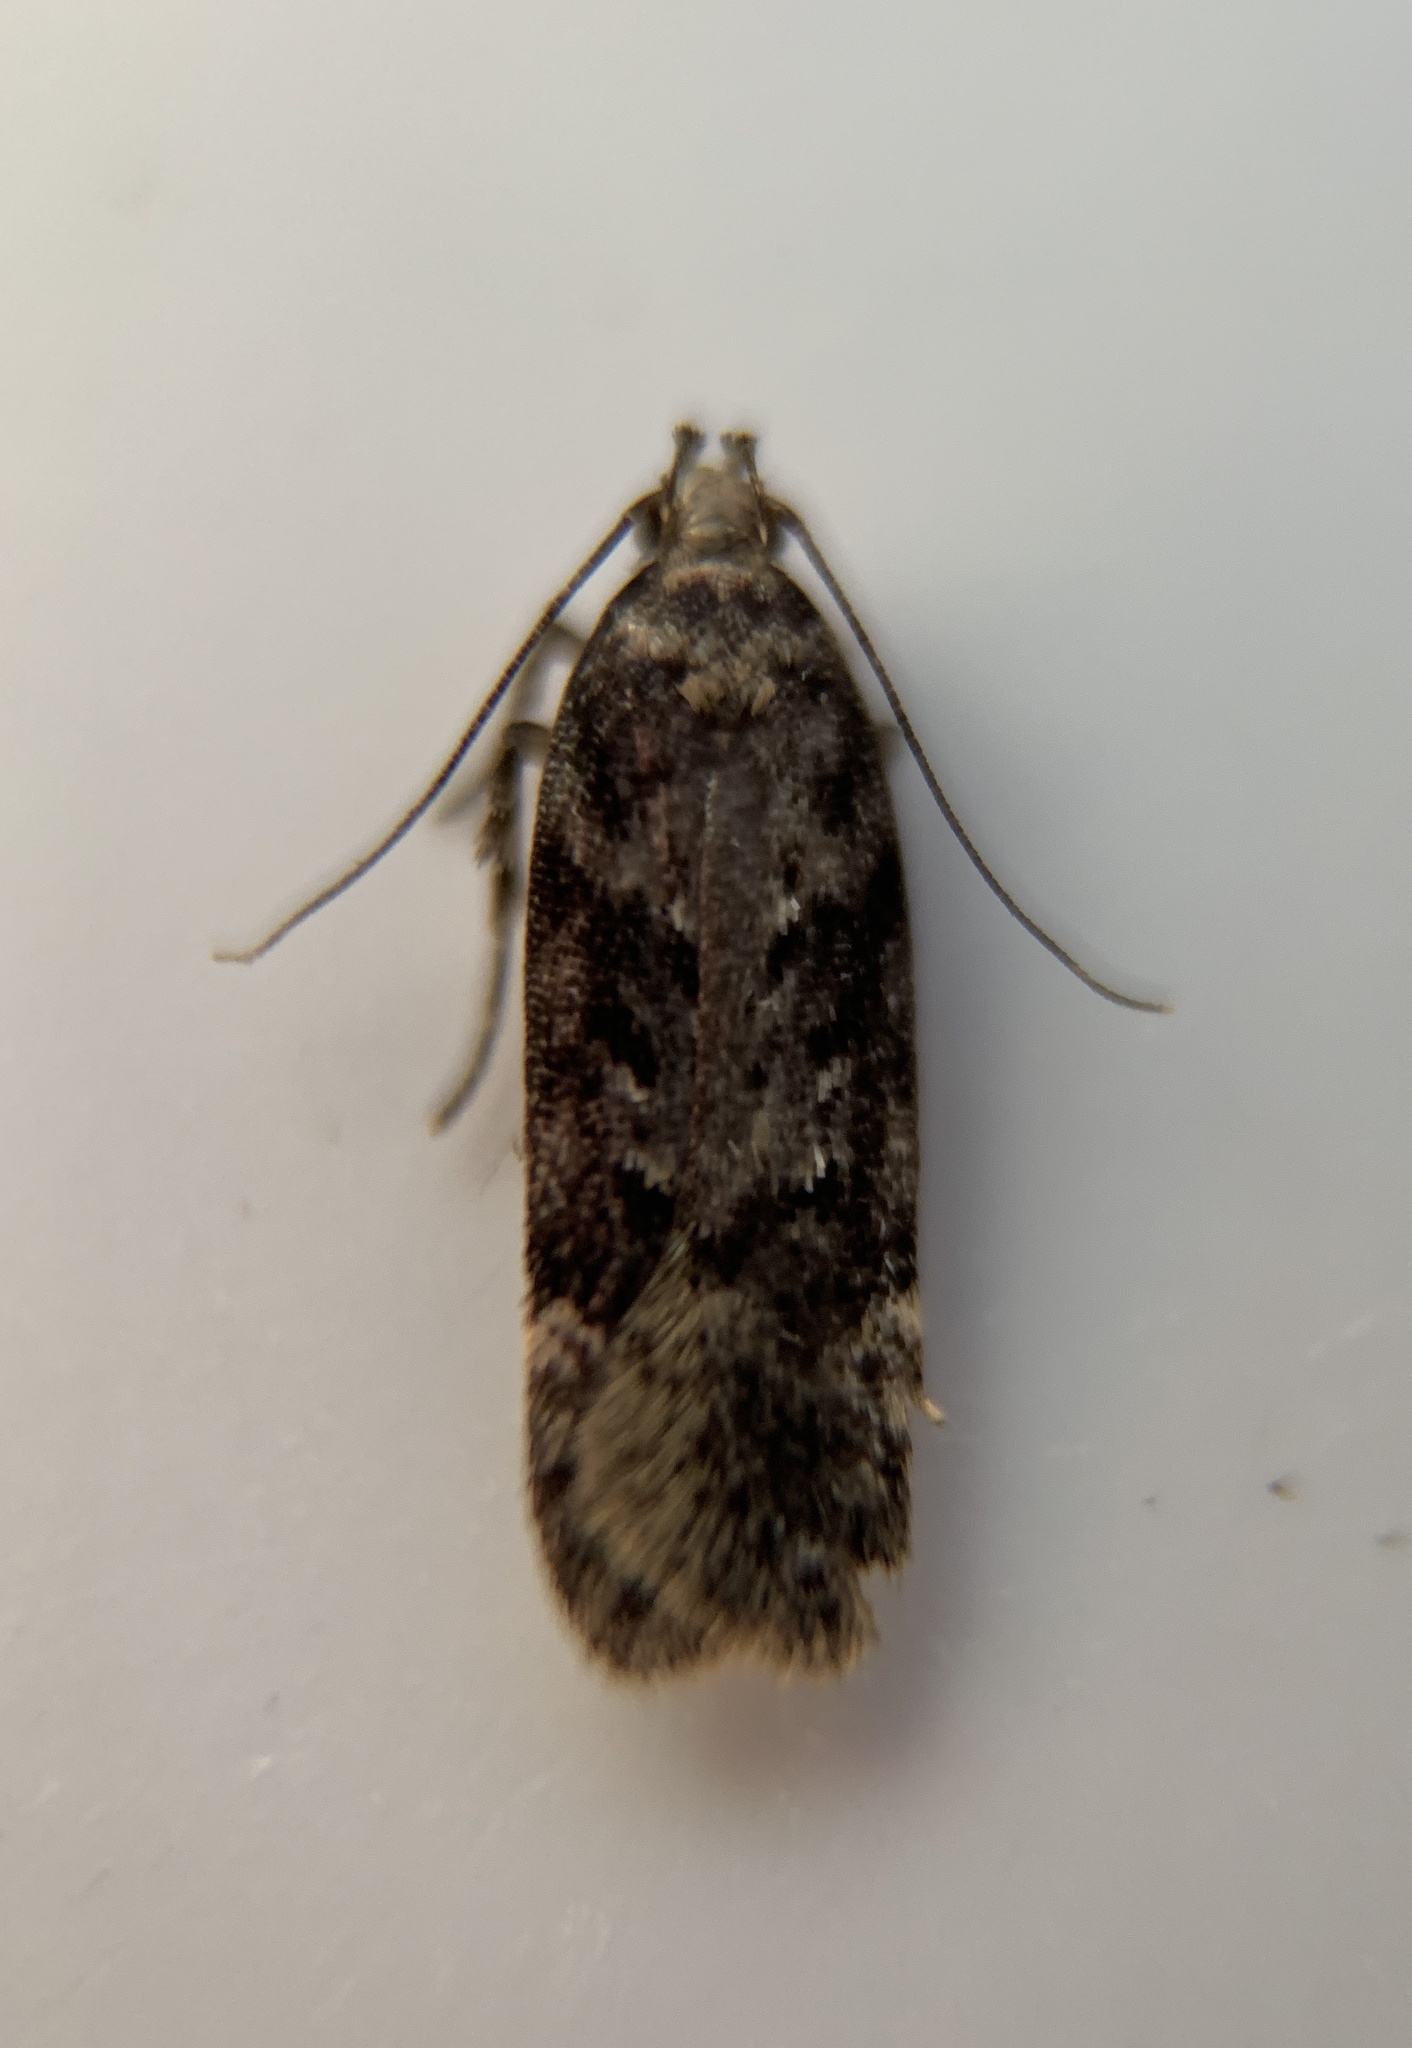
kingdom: Animalia
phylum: Arthropoda
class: Insecta
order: Lepidoptera
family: Gelechiidae
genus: Chionodes
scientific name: Chionodes thoraceochrella
